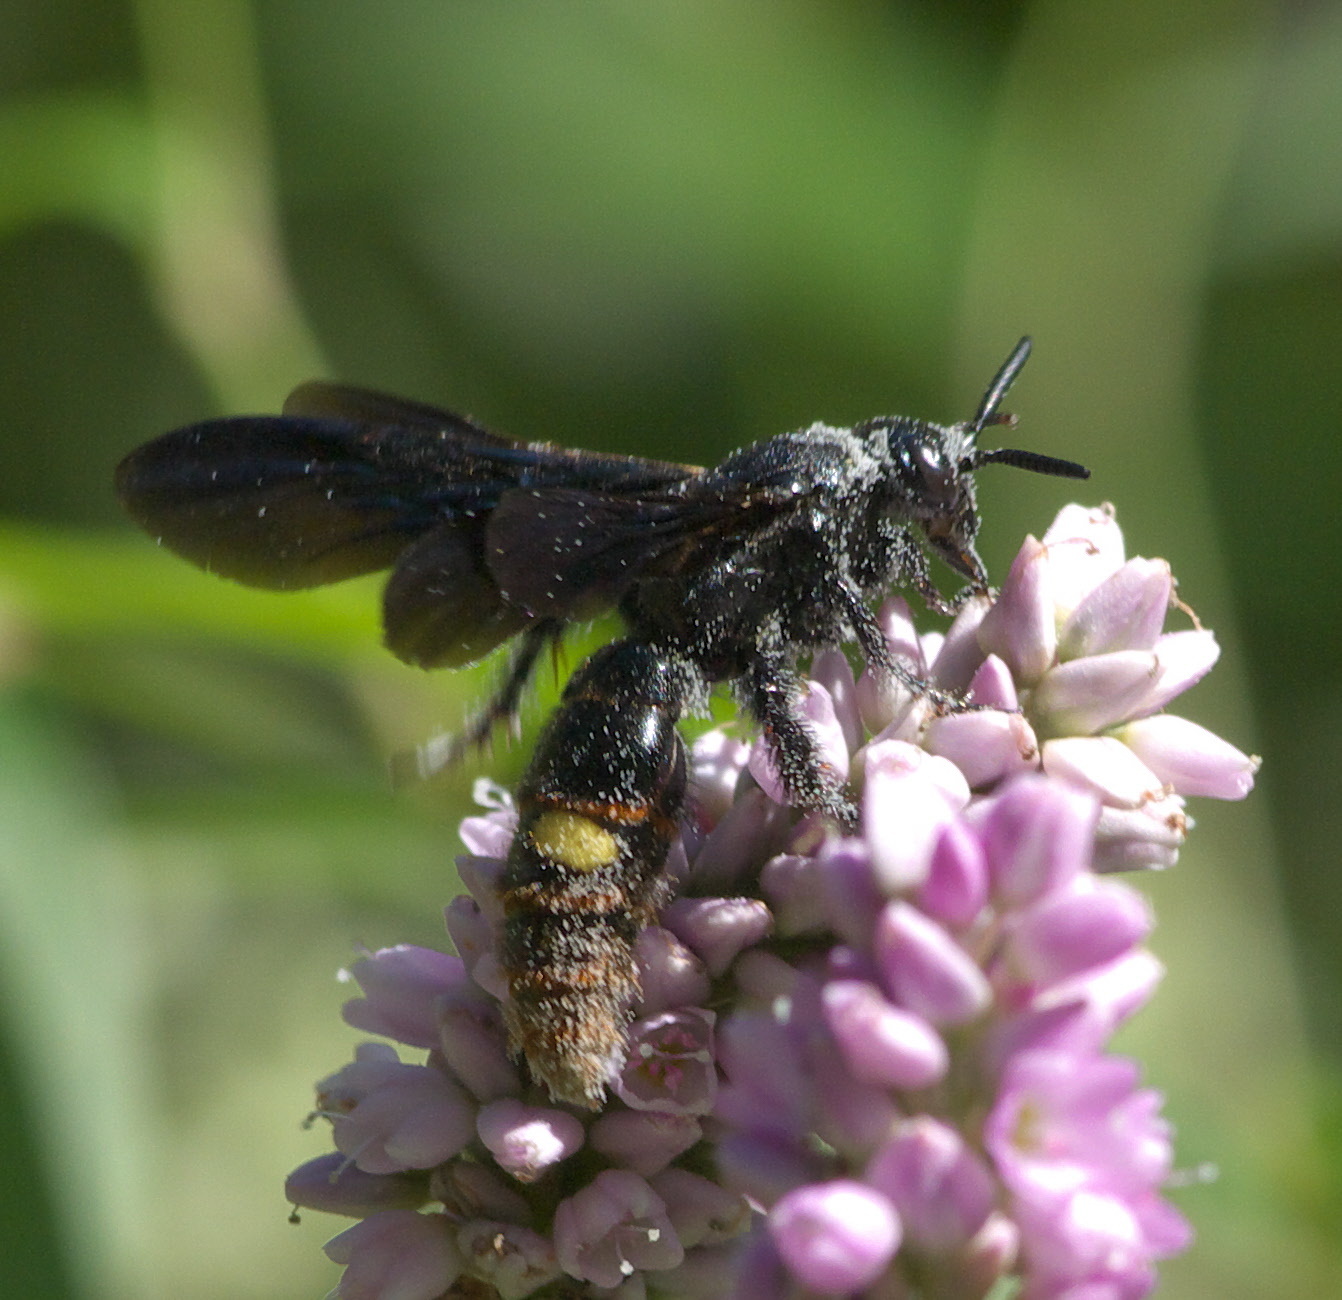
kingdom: Animalia
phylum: Arthropoda
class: Insecta
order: Hymenoptera
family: Scoliidae
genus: Scolia
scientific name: Scolia dubia
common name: Blue-winged scoliid wasp
